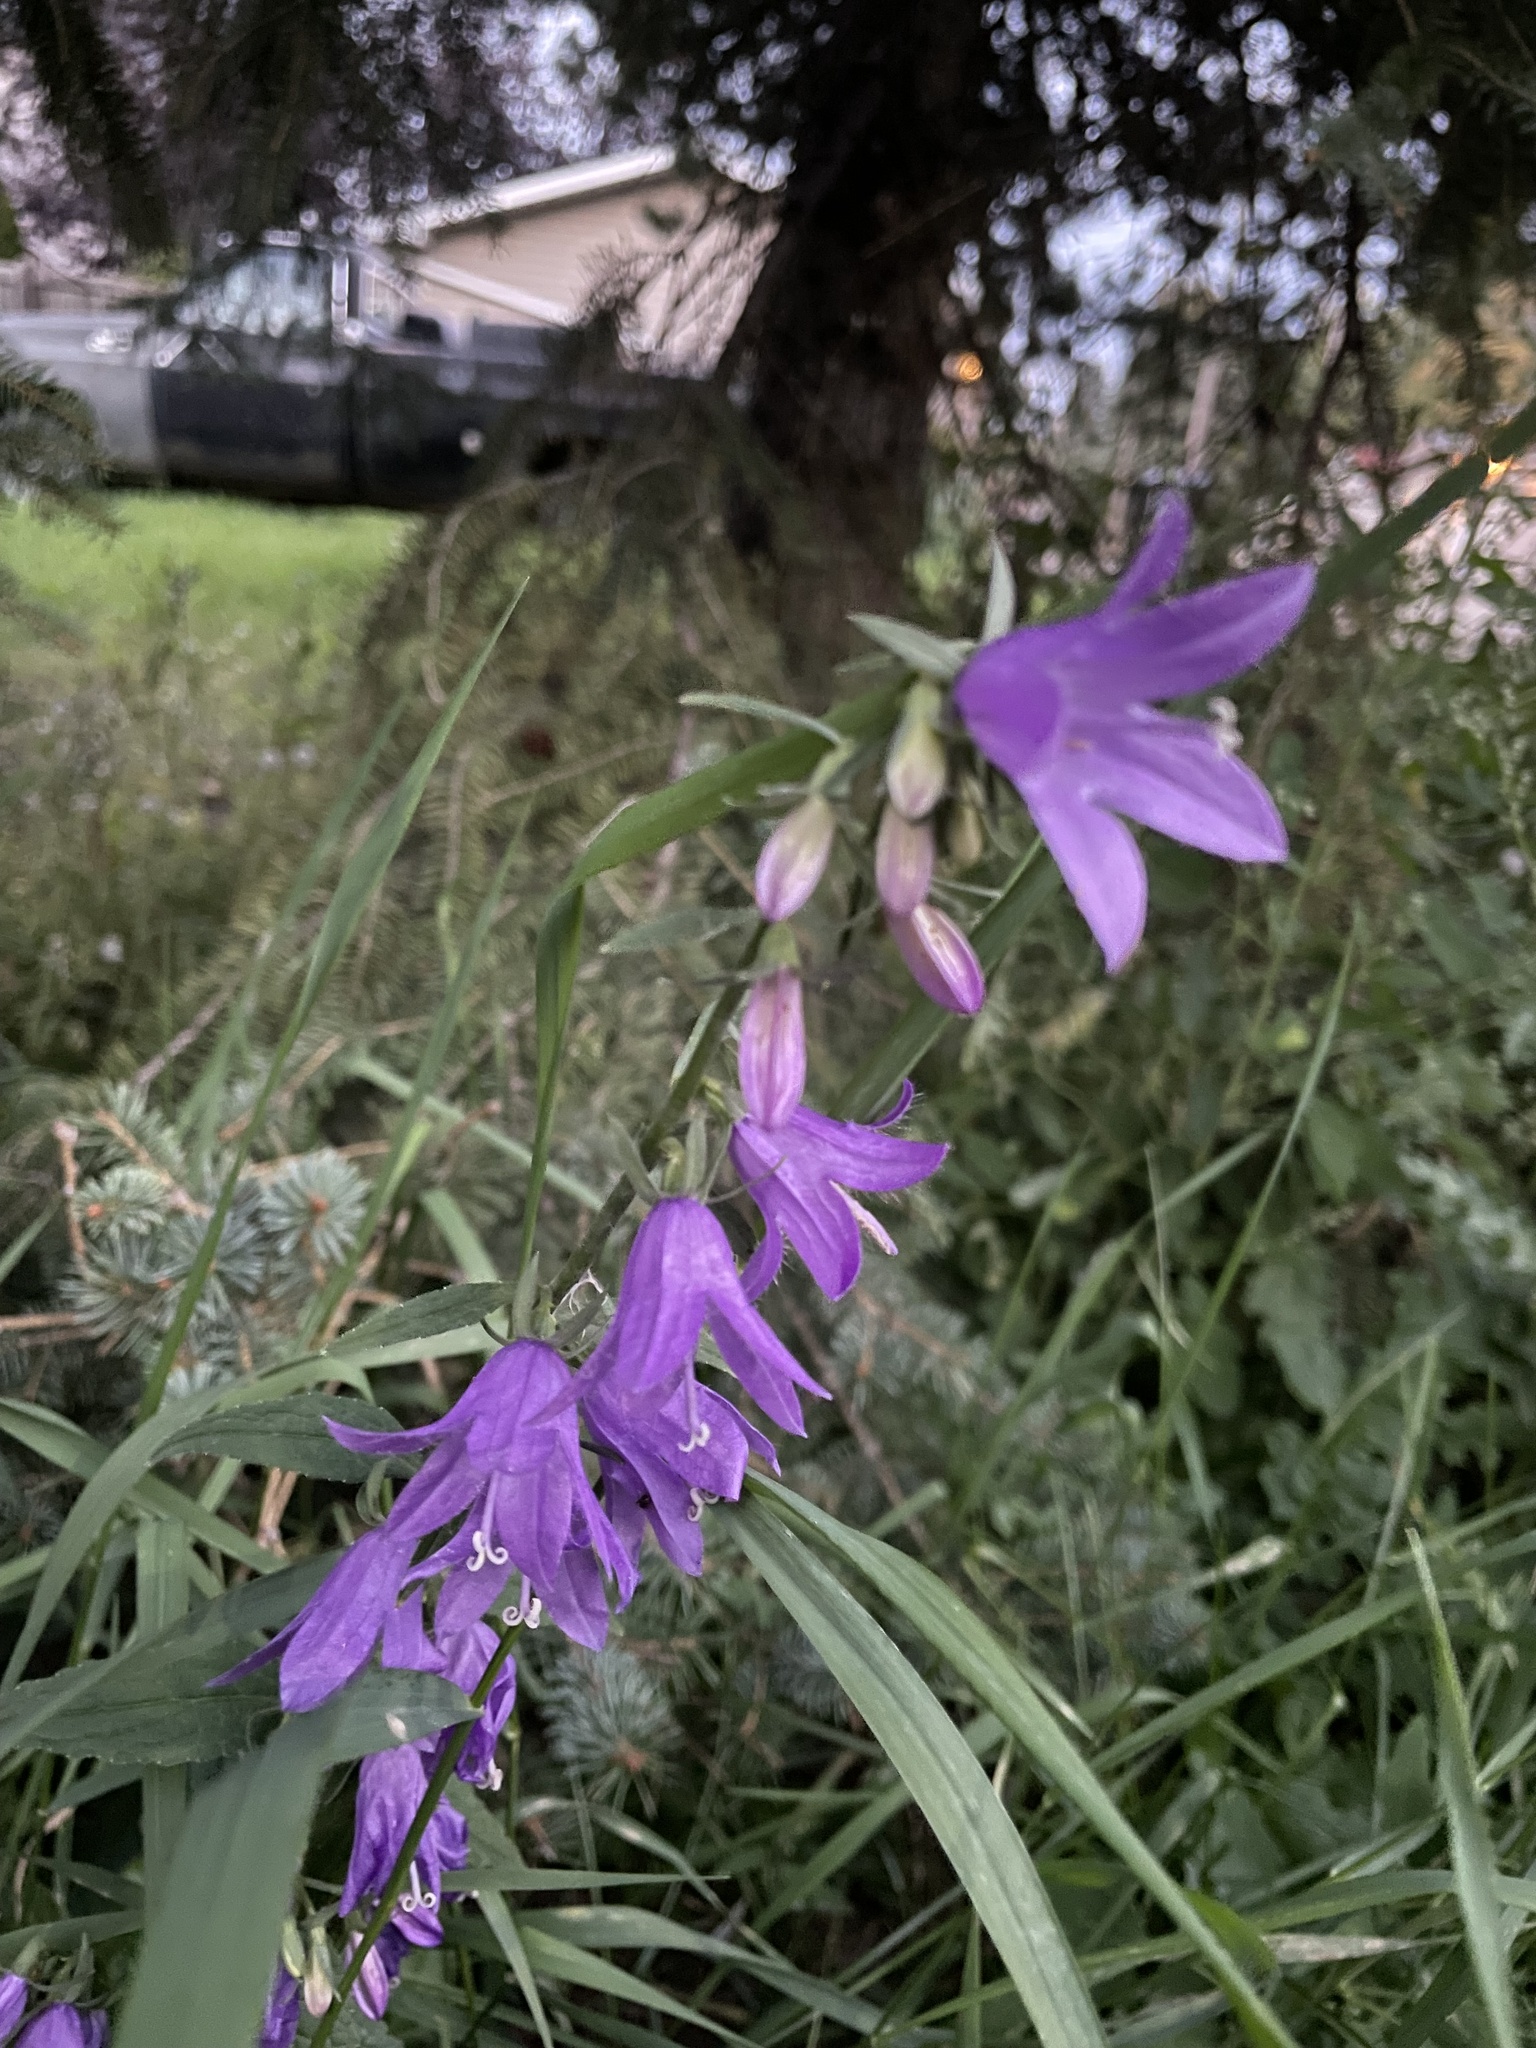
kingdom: Plantae
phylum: Tracheophyta
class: Magnoliopsida
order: Asterales
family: Campanulaceae
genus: Campanula
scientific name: Campanula rapunculoides
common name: Creeping bellflower
